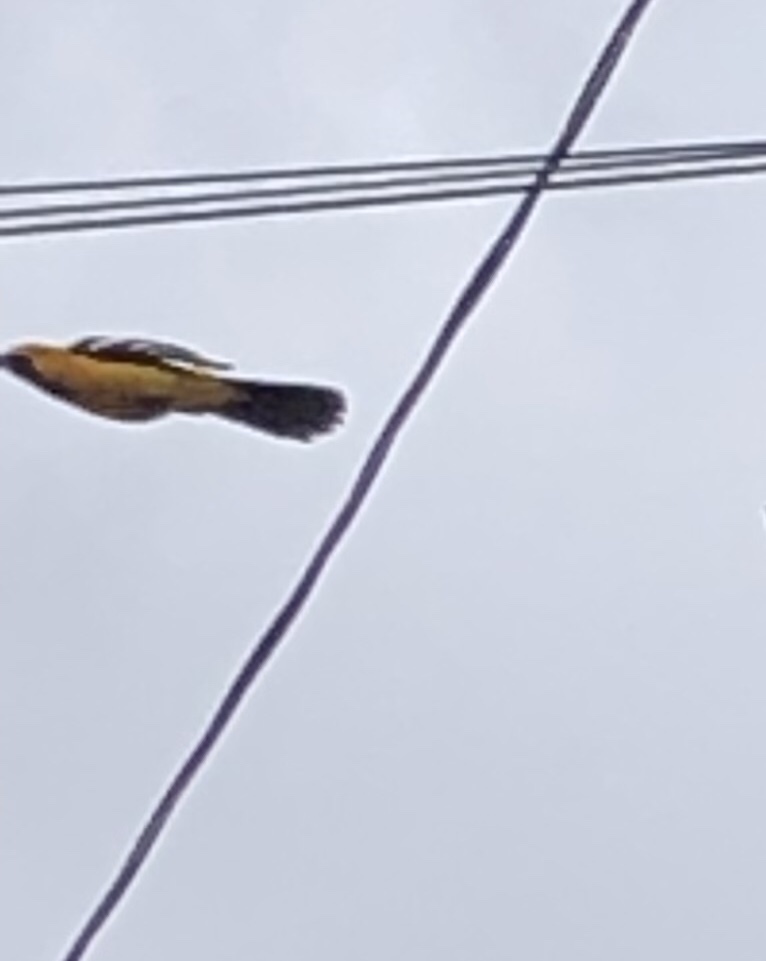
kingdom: Animalia
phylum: Chordata
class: Aves
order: Passeriformes
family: Icteridae
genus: Icterus
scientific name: Icterus cucullatus
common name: Hooded oriole
